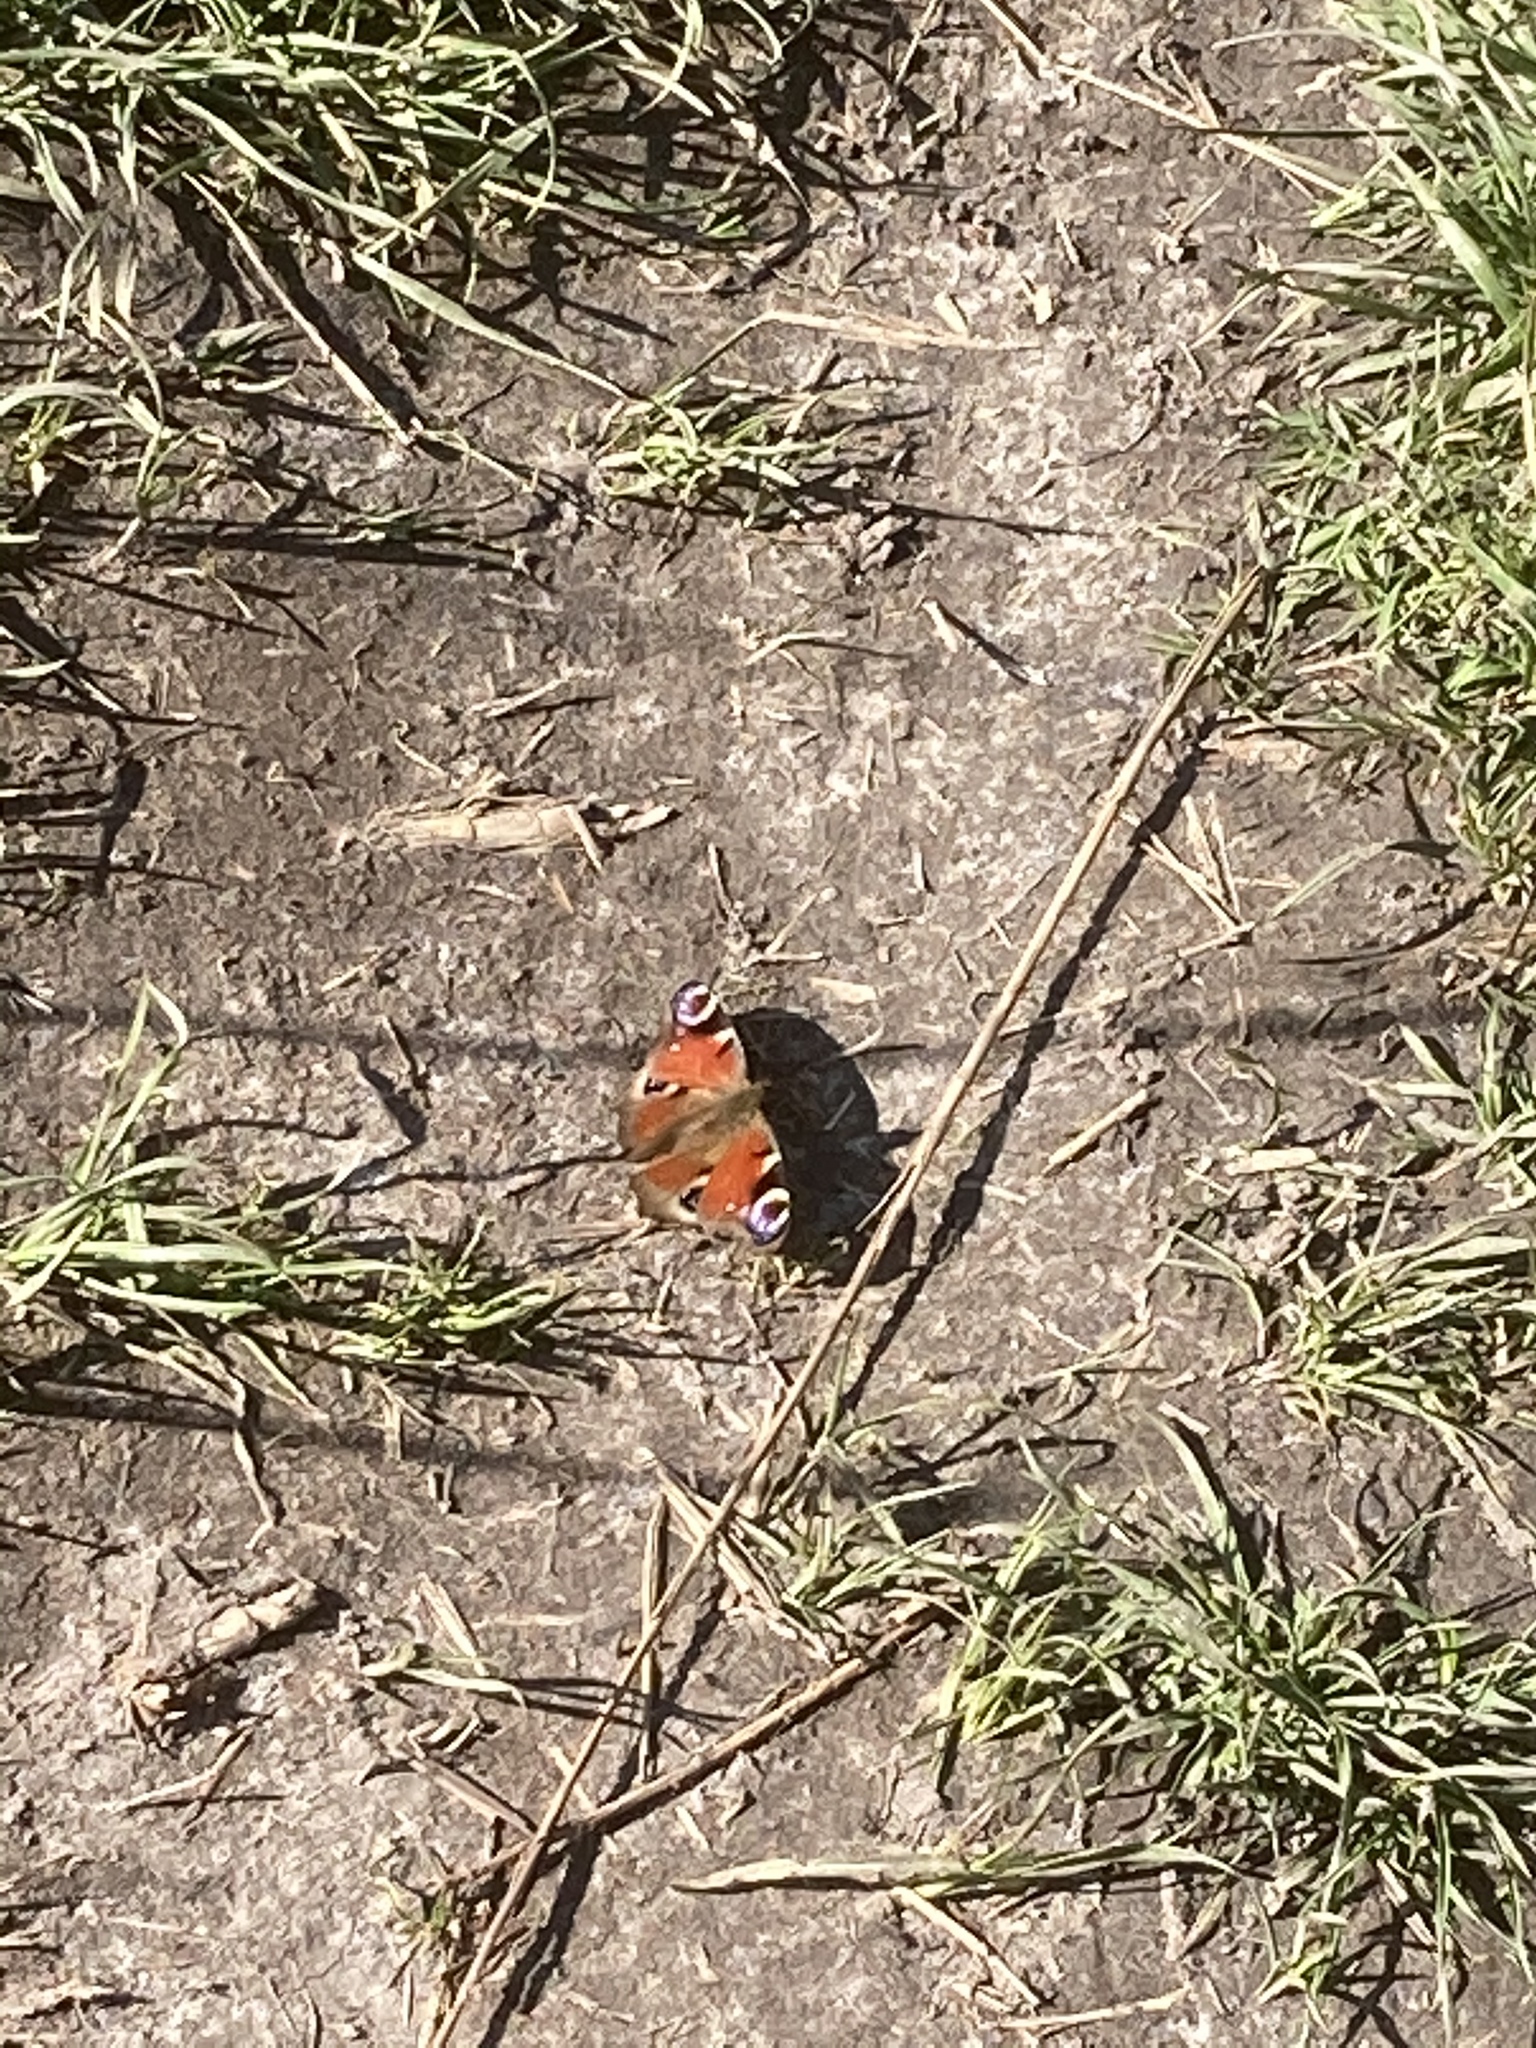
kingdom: Animalia
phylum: Arthropoda
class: Insecta
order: Lepidoptera
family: Nymphalidae
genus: Aglais
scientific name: Aglais io
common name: Peacock
